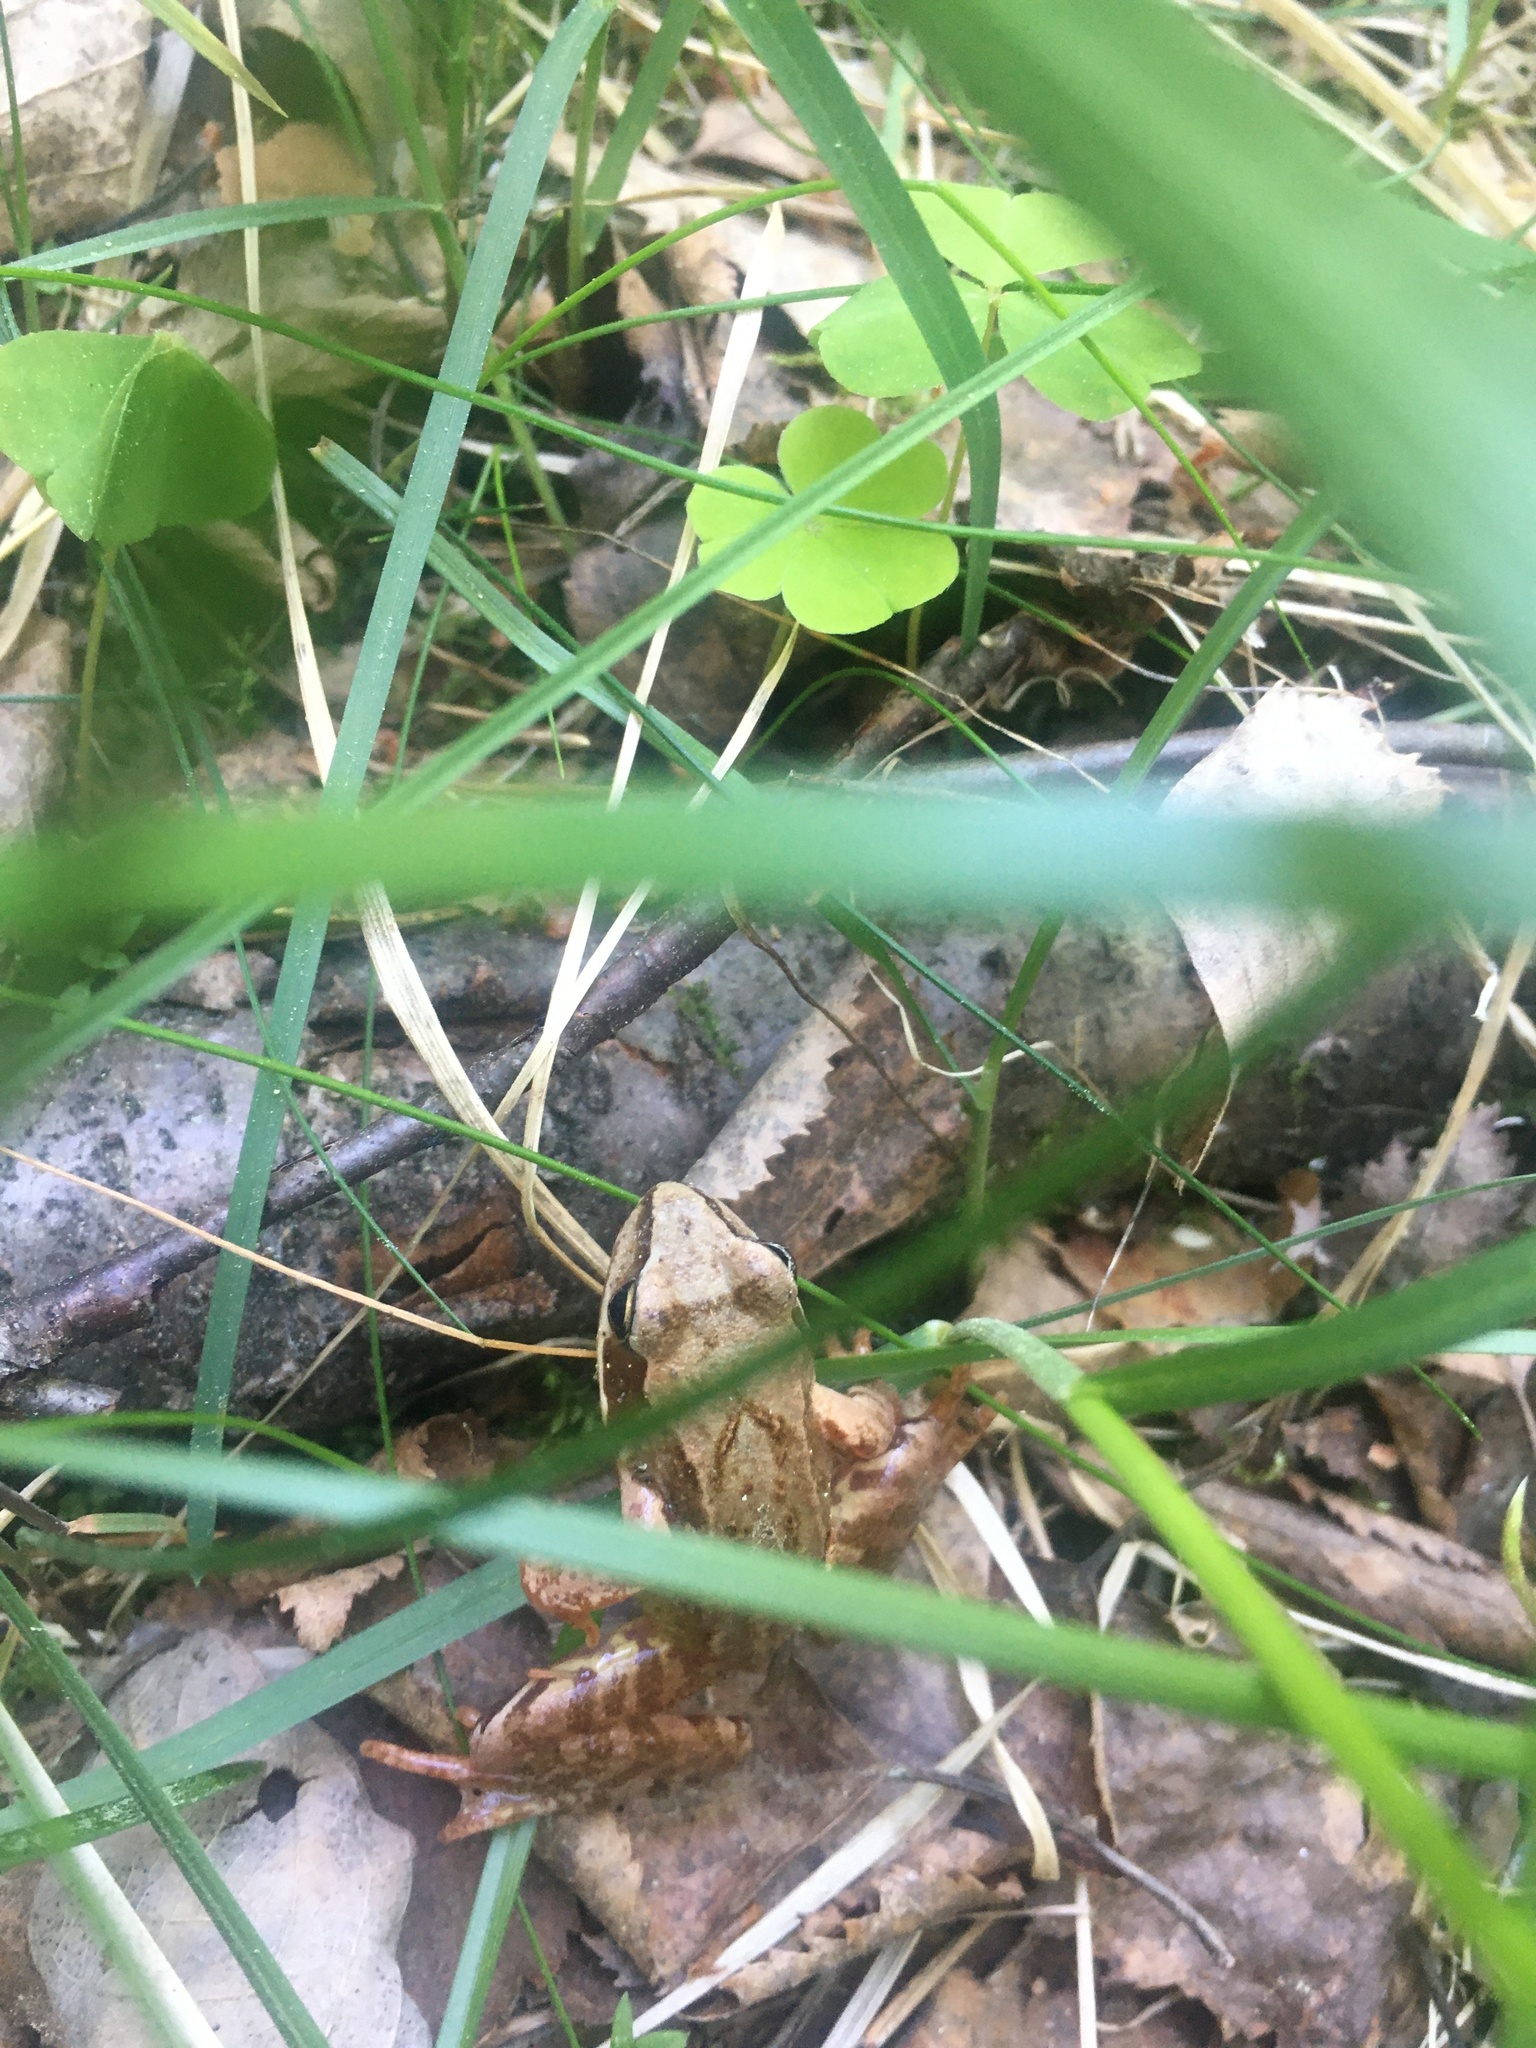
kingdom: Animalia
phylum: Chordata
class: Amphibia
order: Anura
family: Ranidae
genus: Rana
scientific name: Rana temporaria
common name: Common frog
